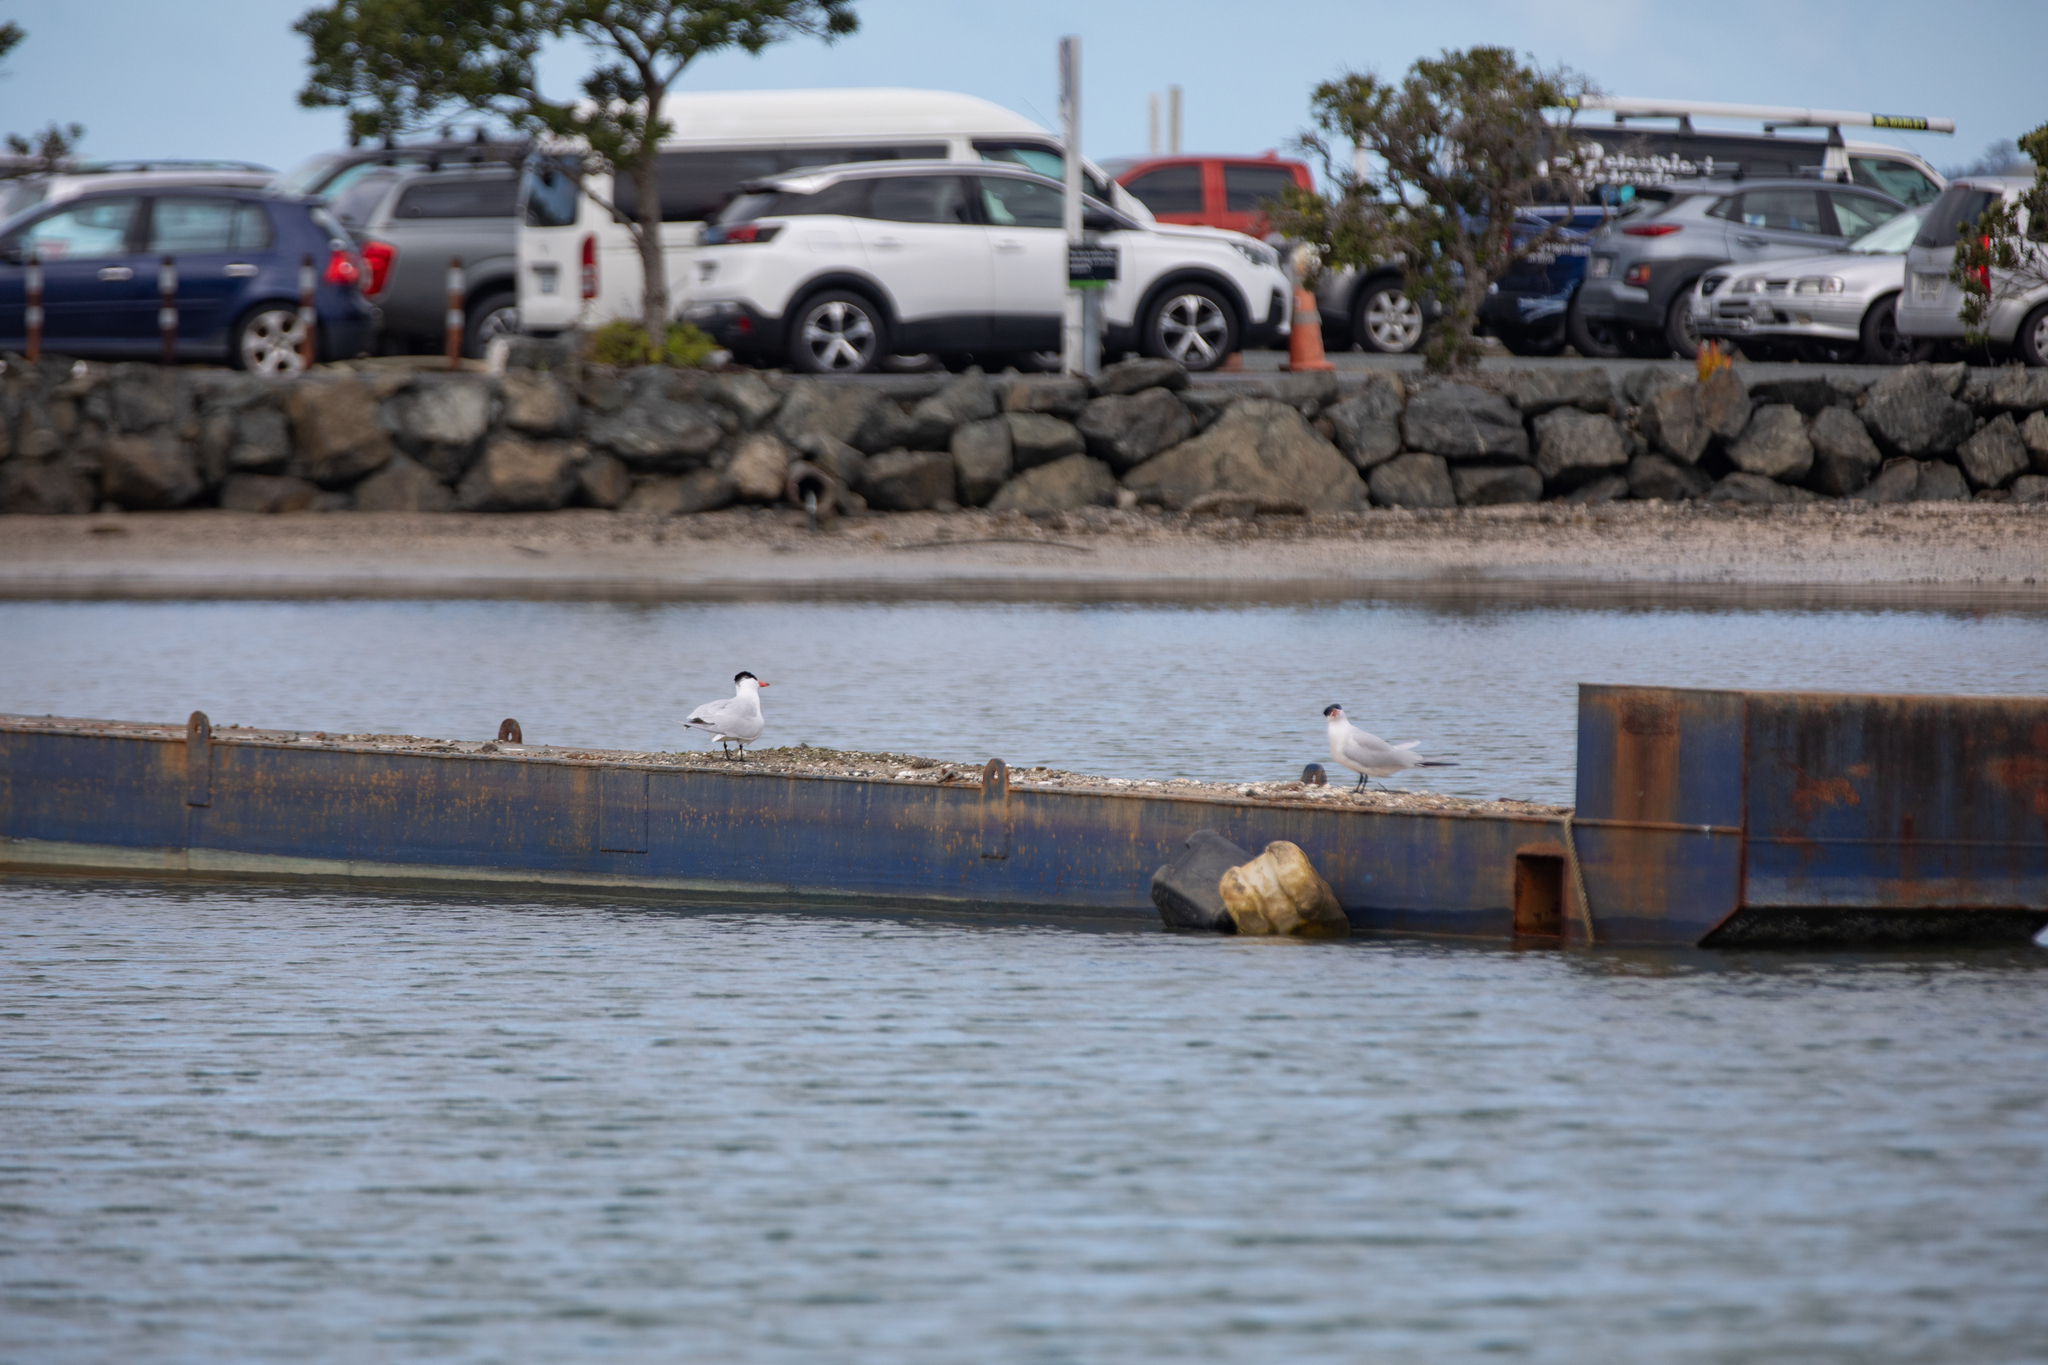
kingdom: Animalia
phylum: Chordata
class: Aves
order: Charadriiformes
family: Laridae
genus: Hydroprogne
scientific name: Hydroprogne caspia
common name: Caspian tern
